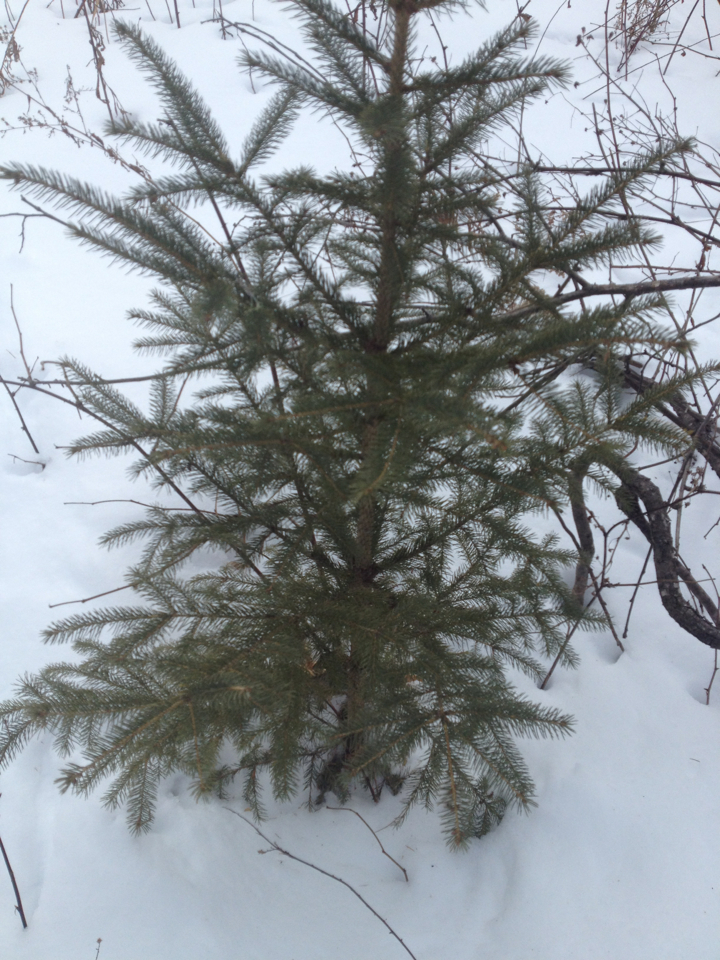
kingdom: Plantae
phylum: Tracheophyta
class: Pinopsida
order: Pinales
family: Pinaceae
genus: Picea
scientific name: Picea rubens
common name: Red spruce
